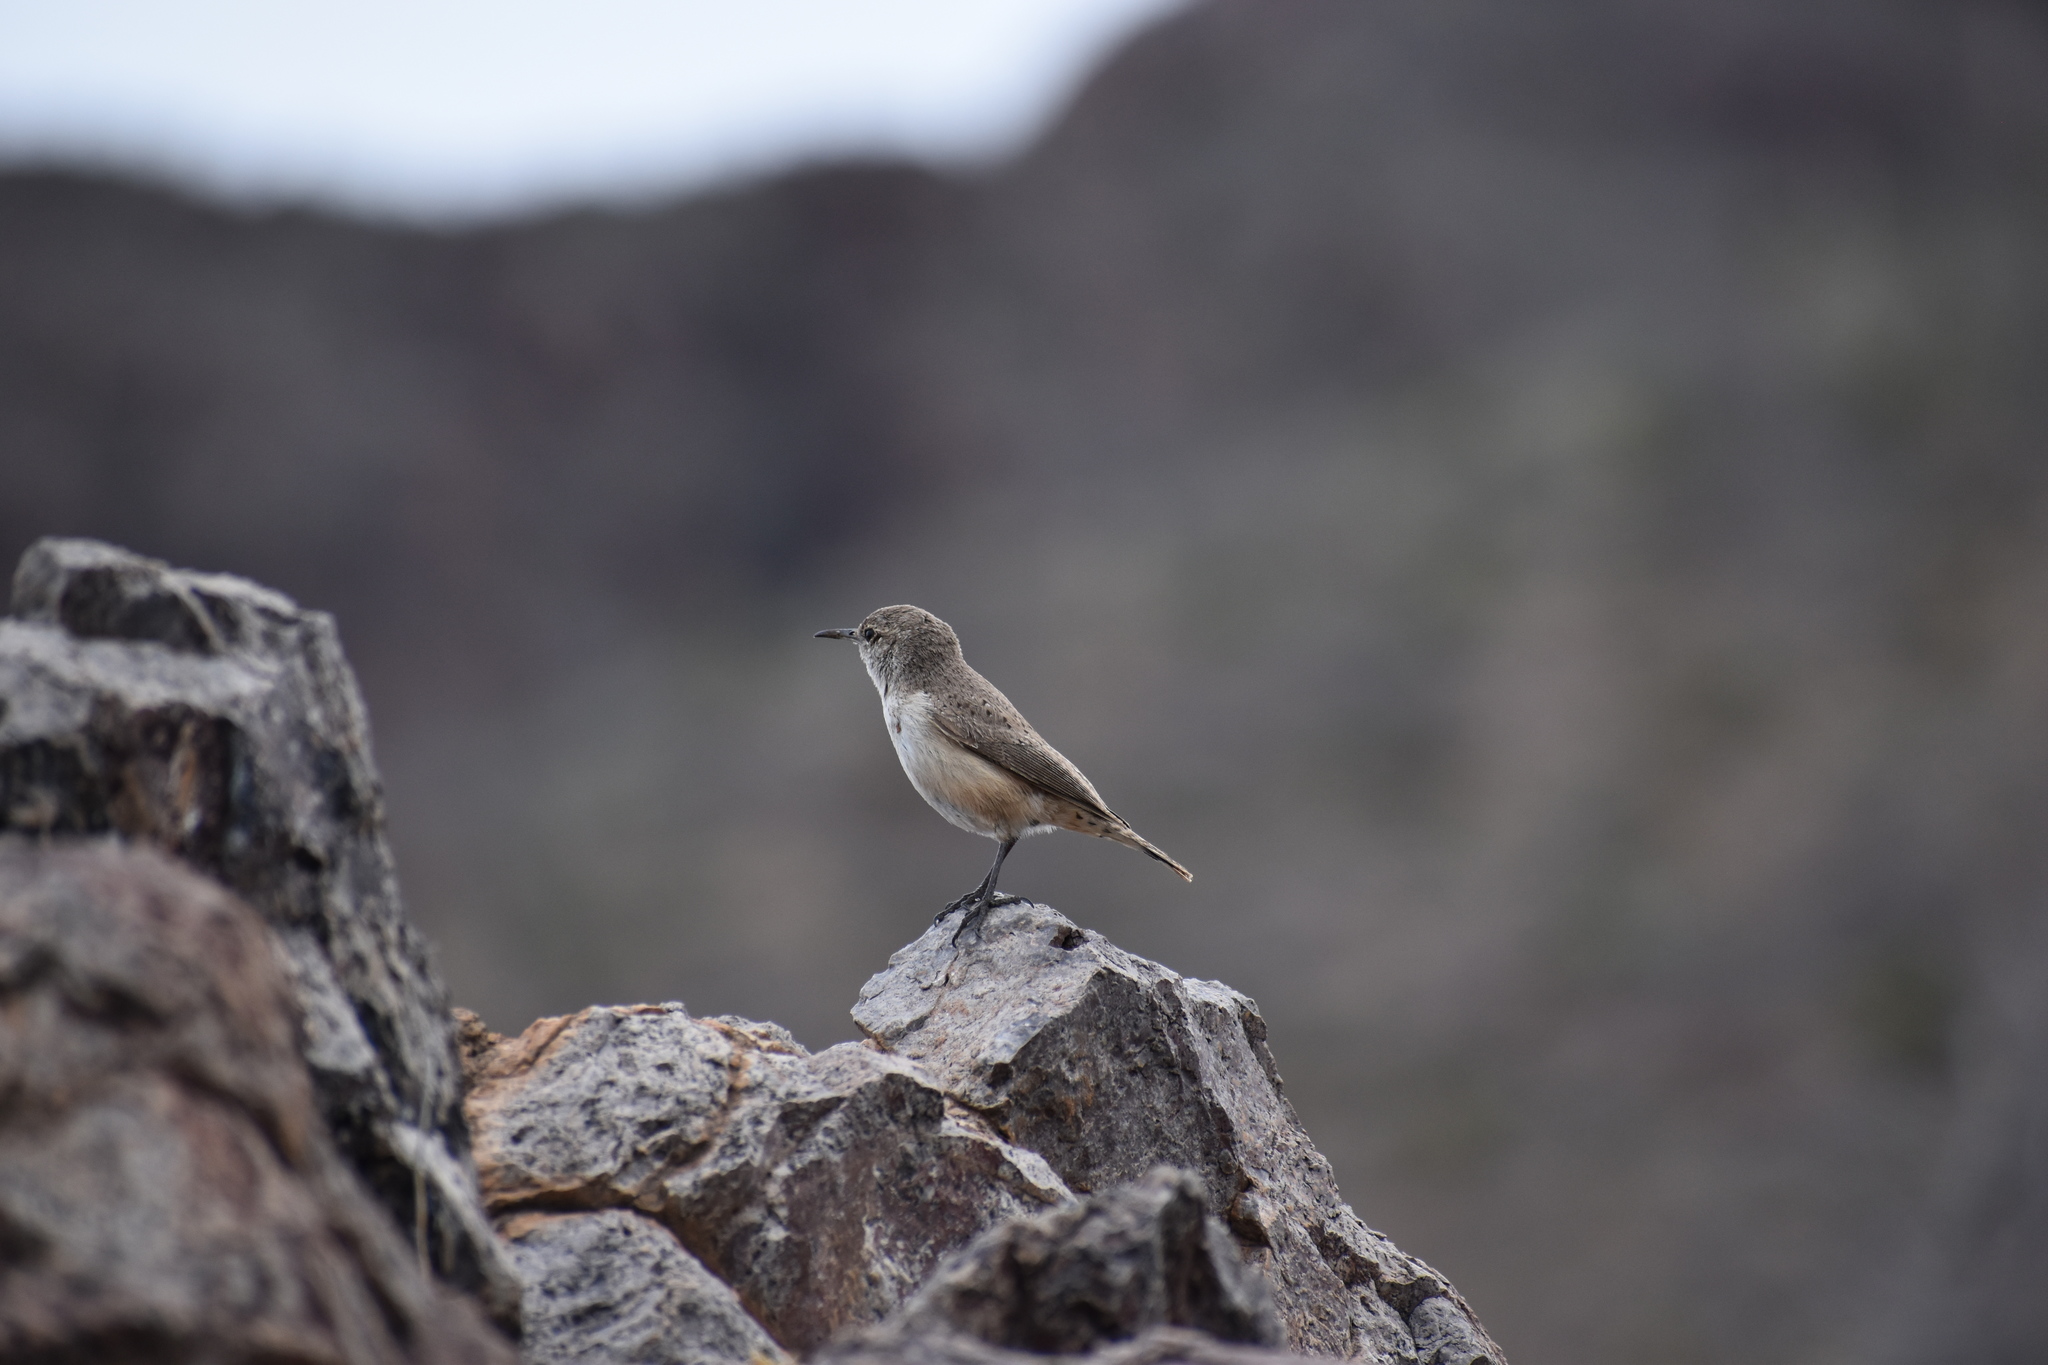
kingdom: Animalia
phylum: Chordata
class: Aves
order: Passeriformes
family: Troglodytidae
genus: Salpinctes
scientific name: Salpinctes obsoletus
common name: Rock wren
